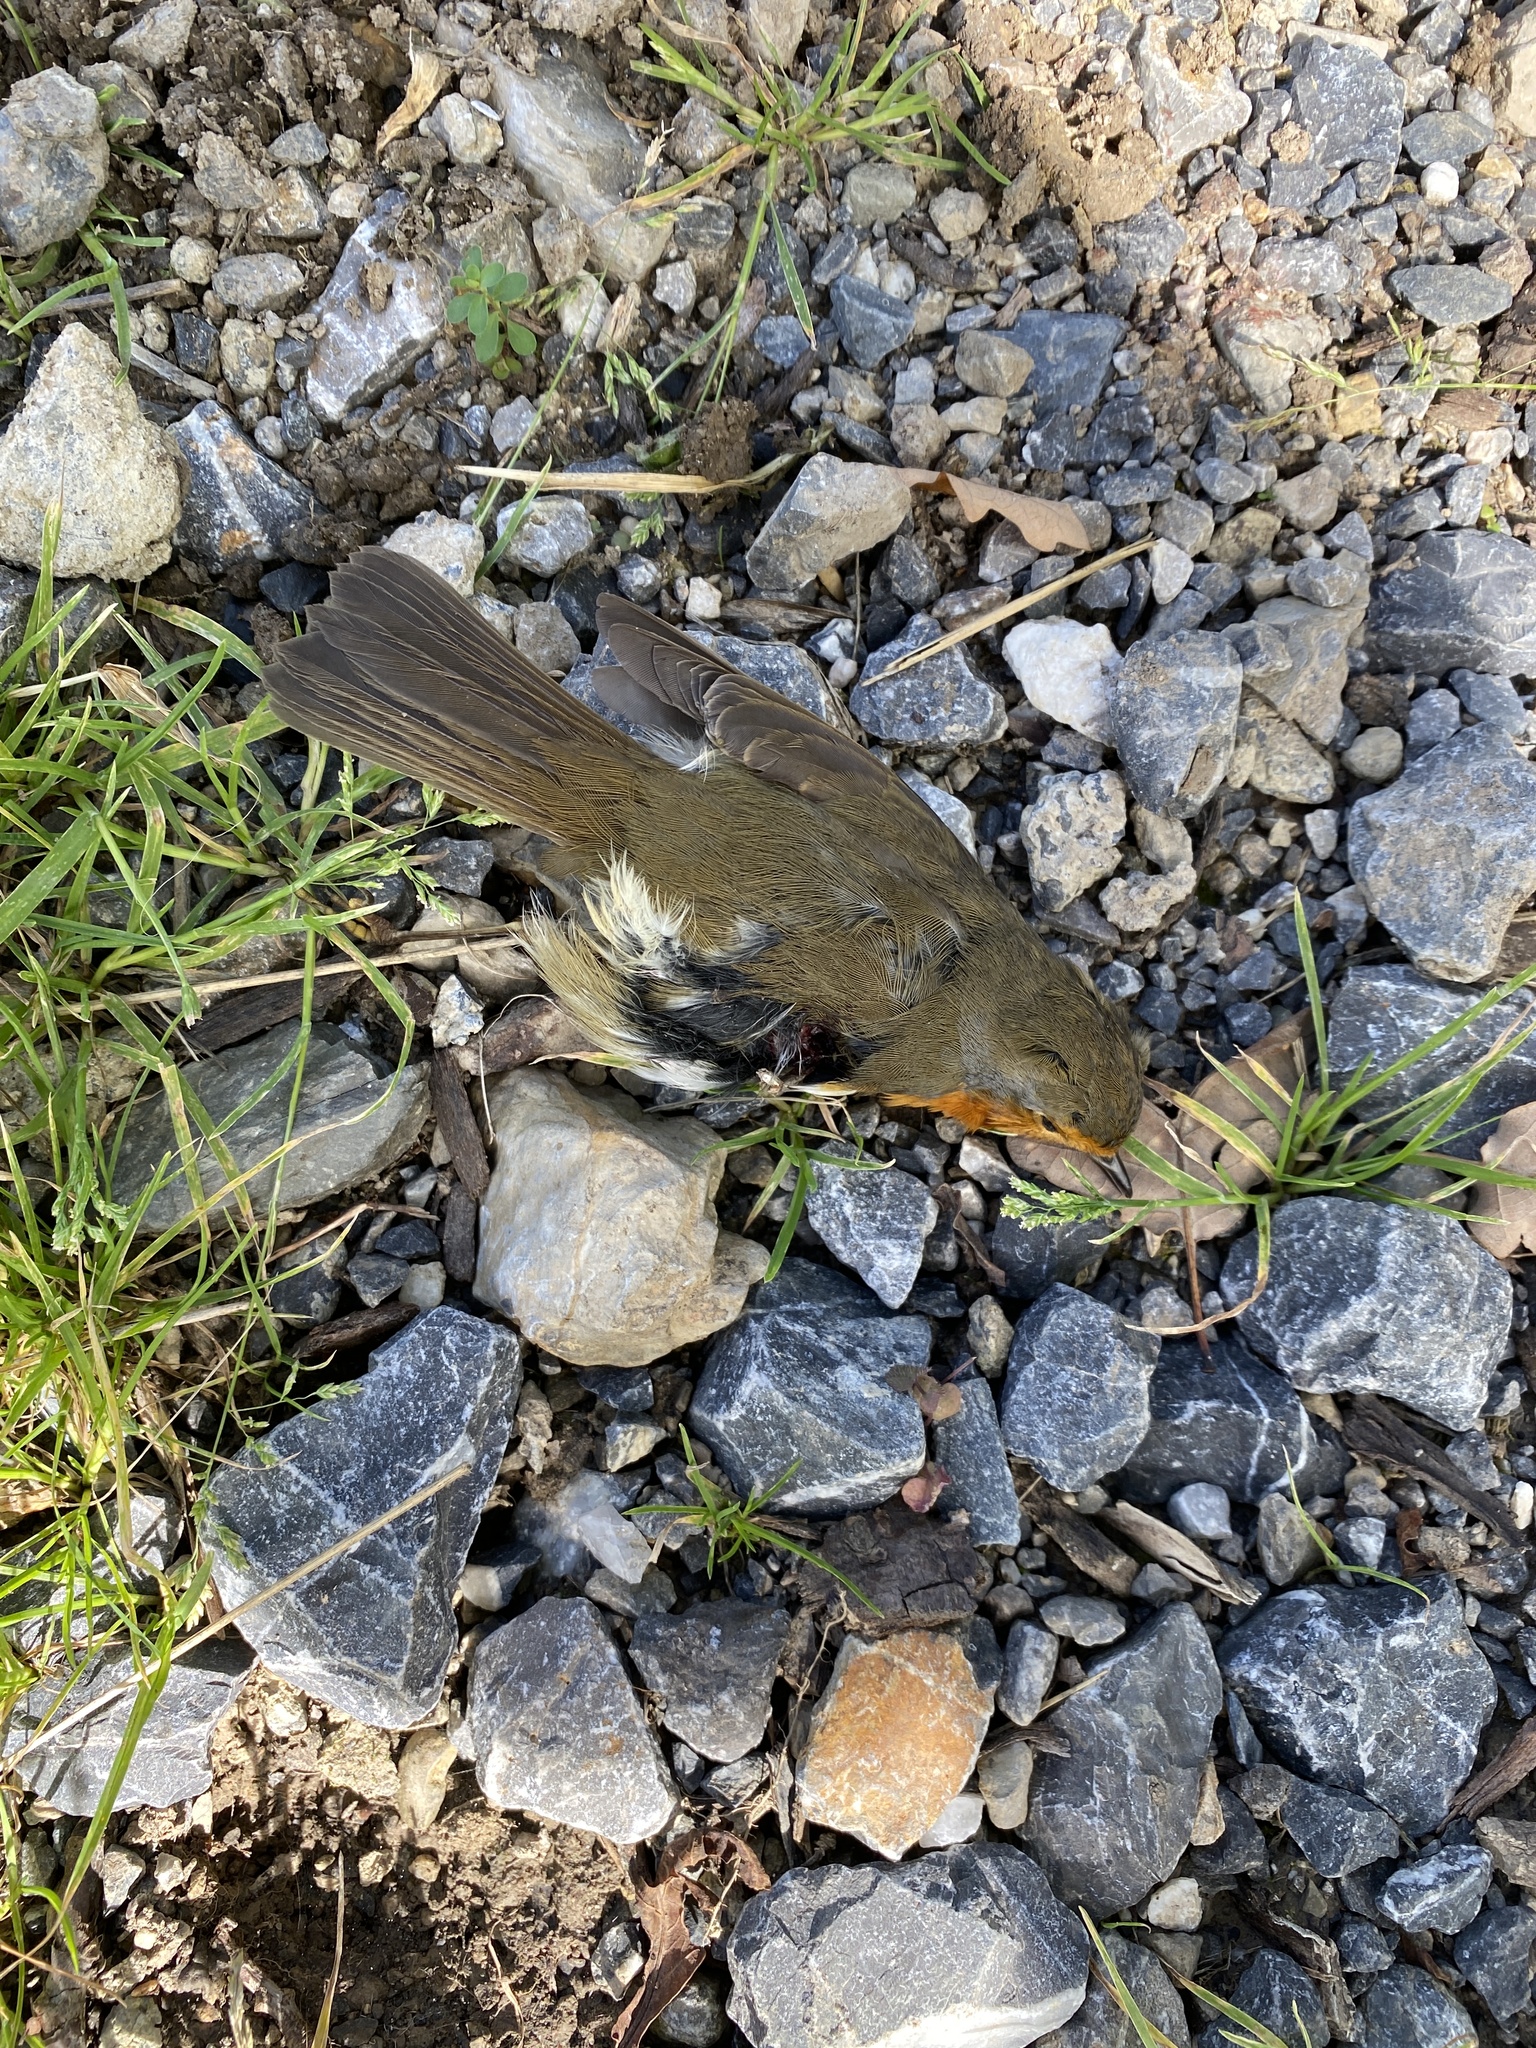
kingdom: Animalia
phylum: Chordata
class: Aves
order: Passeriformes
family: Muscicapidae
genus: Erithacus
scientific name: Erithacus rubecula
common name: European robin
